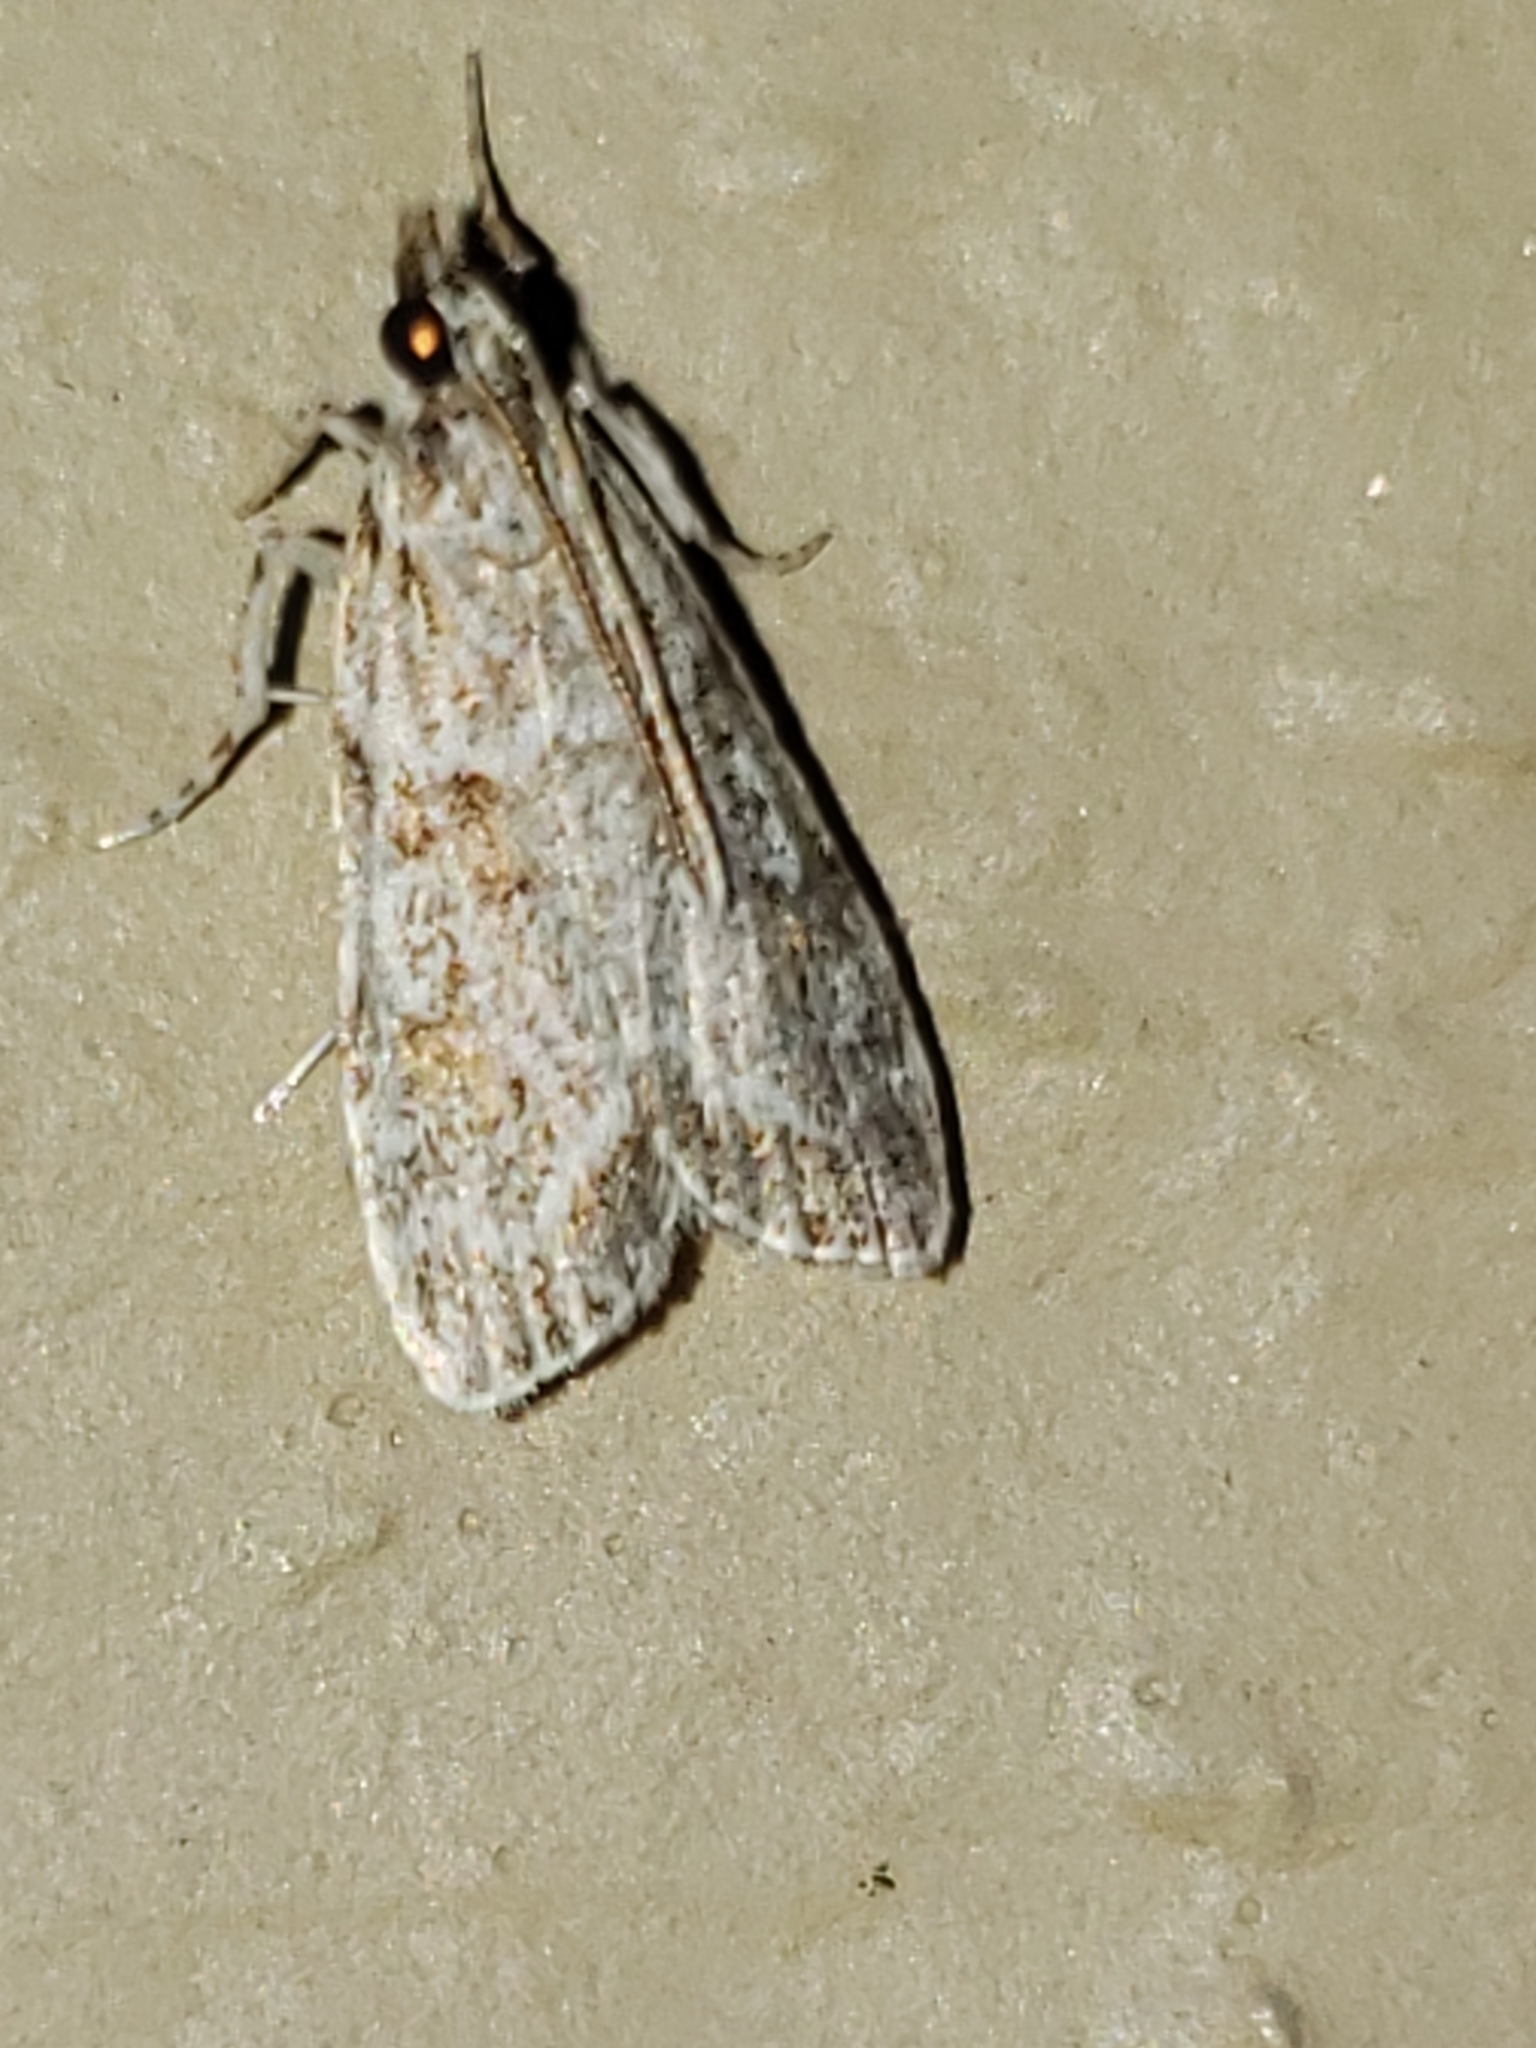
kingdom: Animalia
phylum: Arthropoda
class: Insecta
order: Lepidoptera
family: Crambidae
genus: Scoparia
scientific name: Scoparia biplagialis
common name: Double-striped scoparia moth
